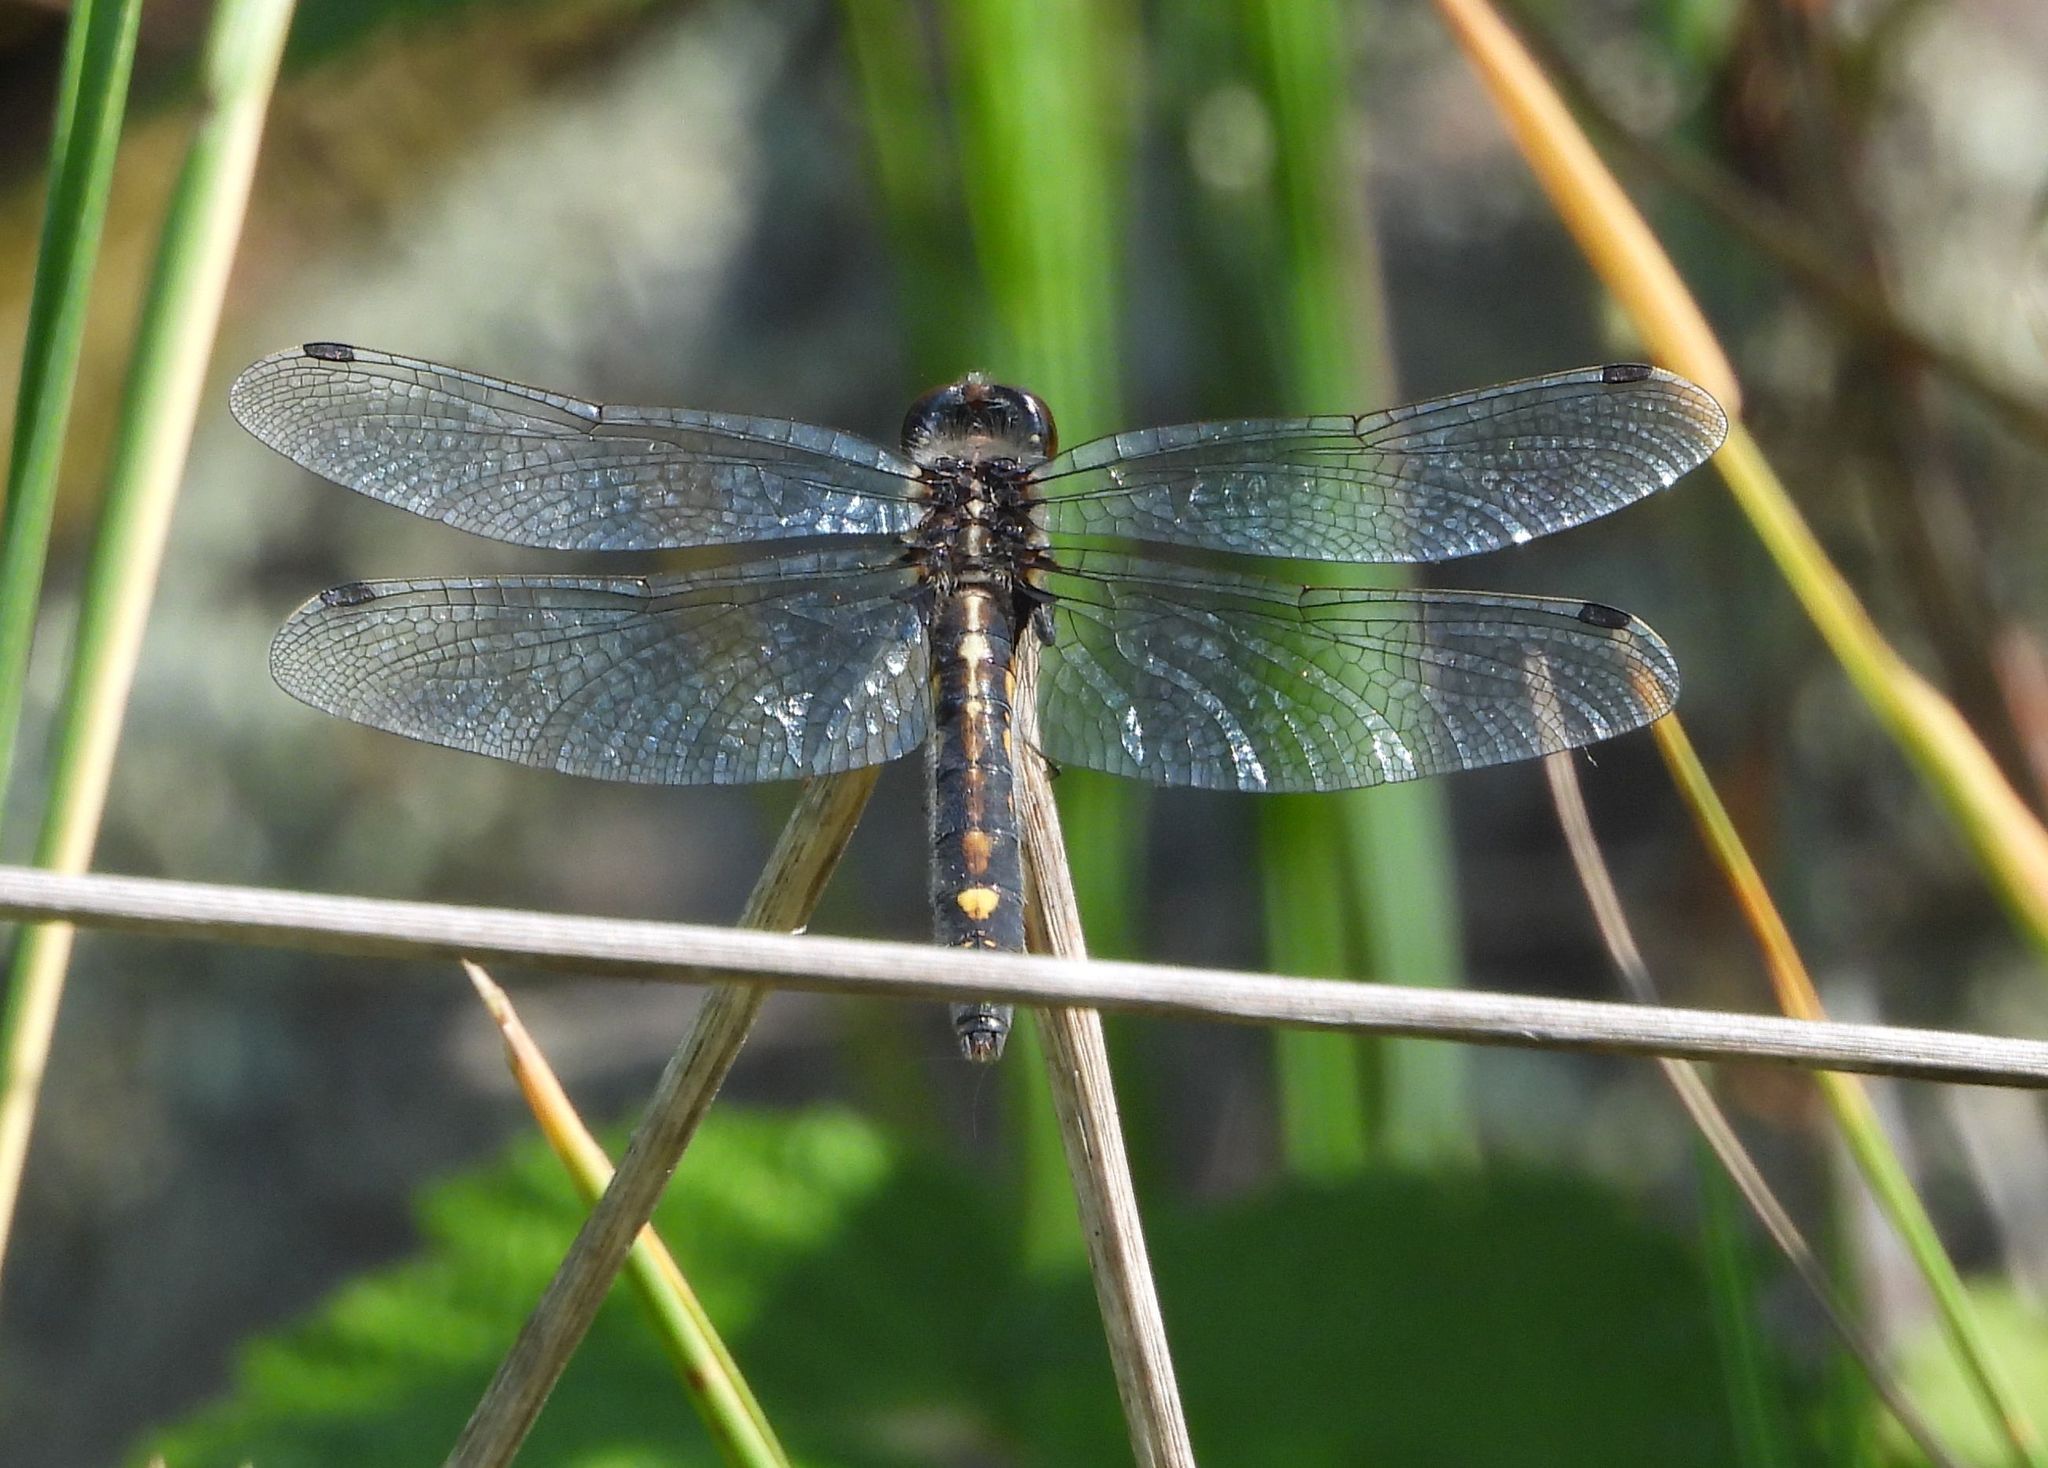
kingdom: Animalia
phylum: Arthropoda
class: Insecta
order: Odonata
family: Libellulidae
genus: Leucorrhinia
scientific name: Leucorrhinia intacta
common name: Dot-tailed whiteface
